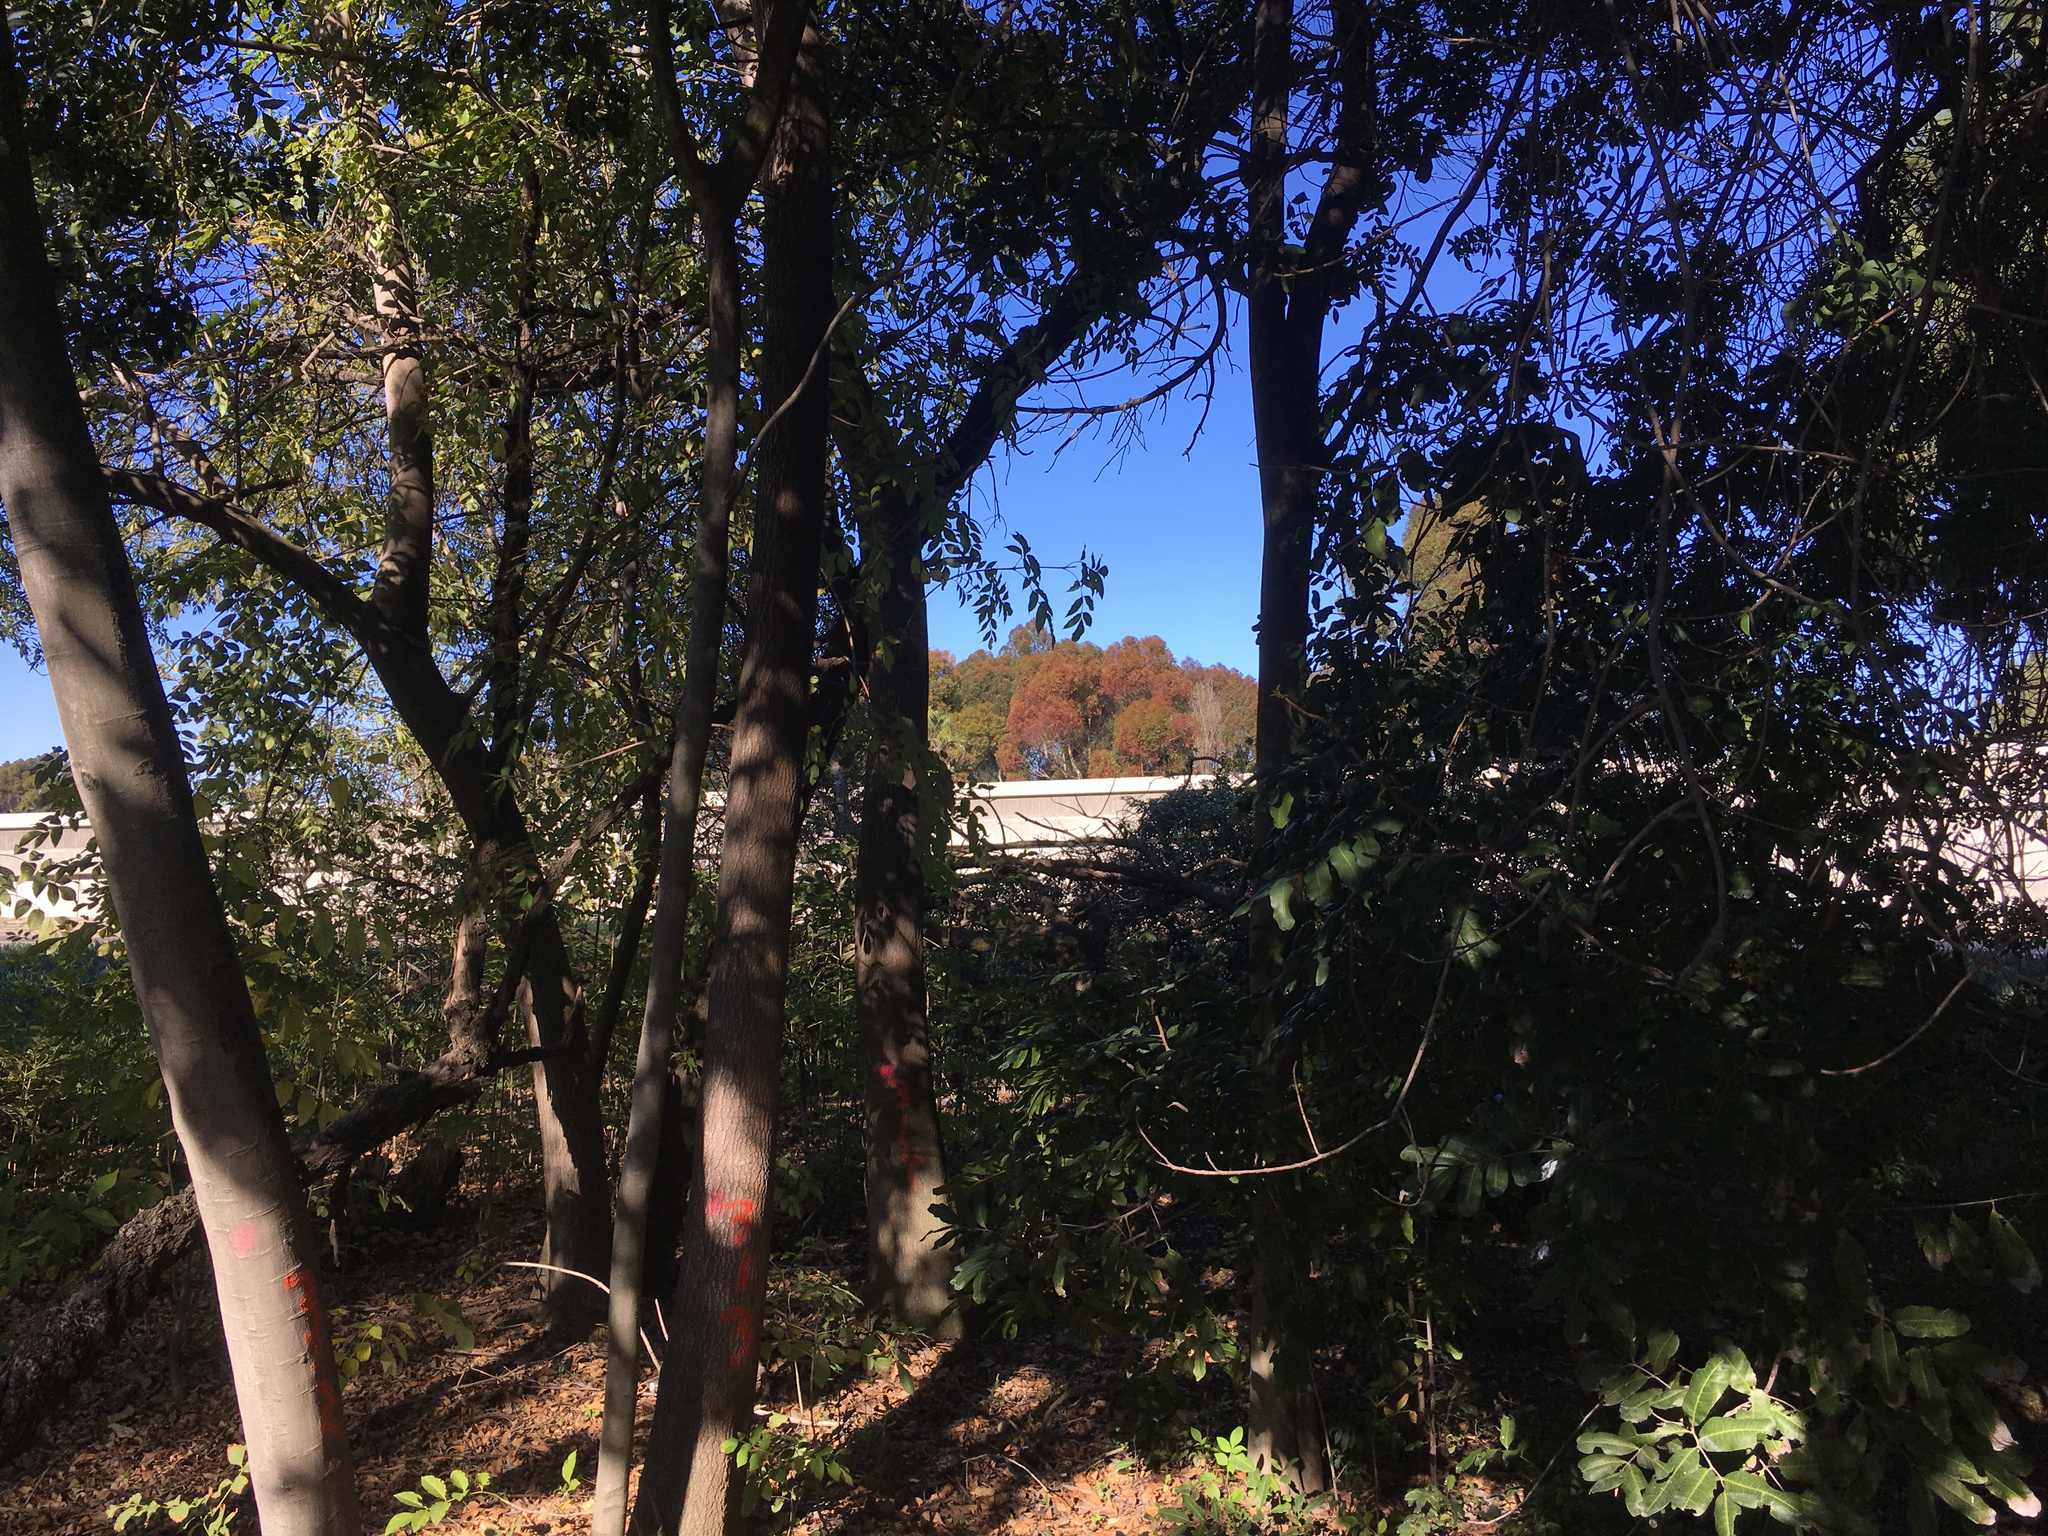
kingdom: Plantae
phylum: Tracheophyta
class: Magnoliopsida
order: Lamiales
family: Scrophulariaceae
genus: Myoporum
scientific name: Myoporum laetum
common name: Ngaio tree
